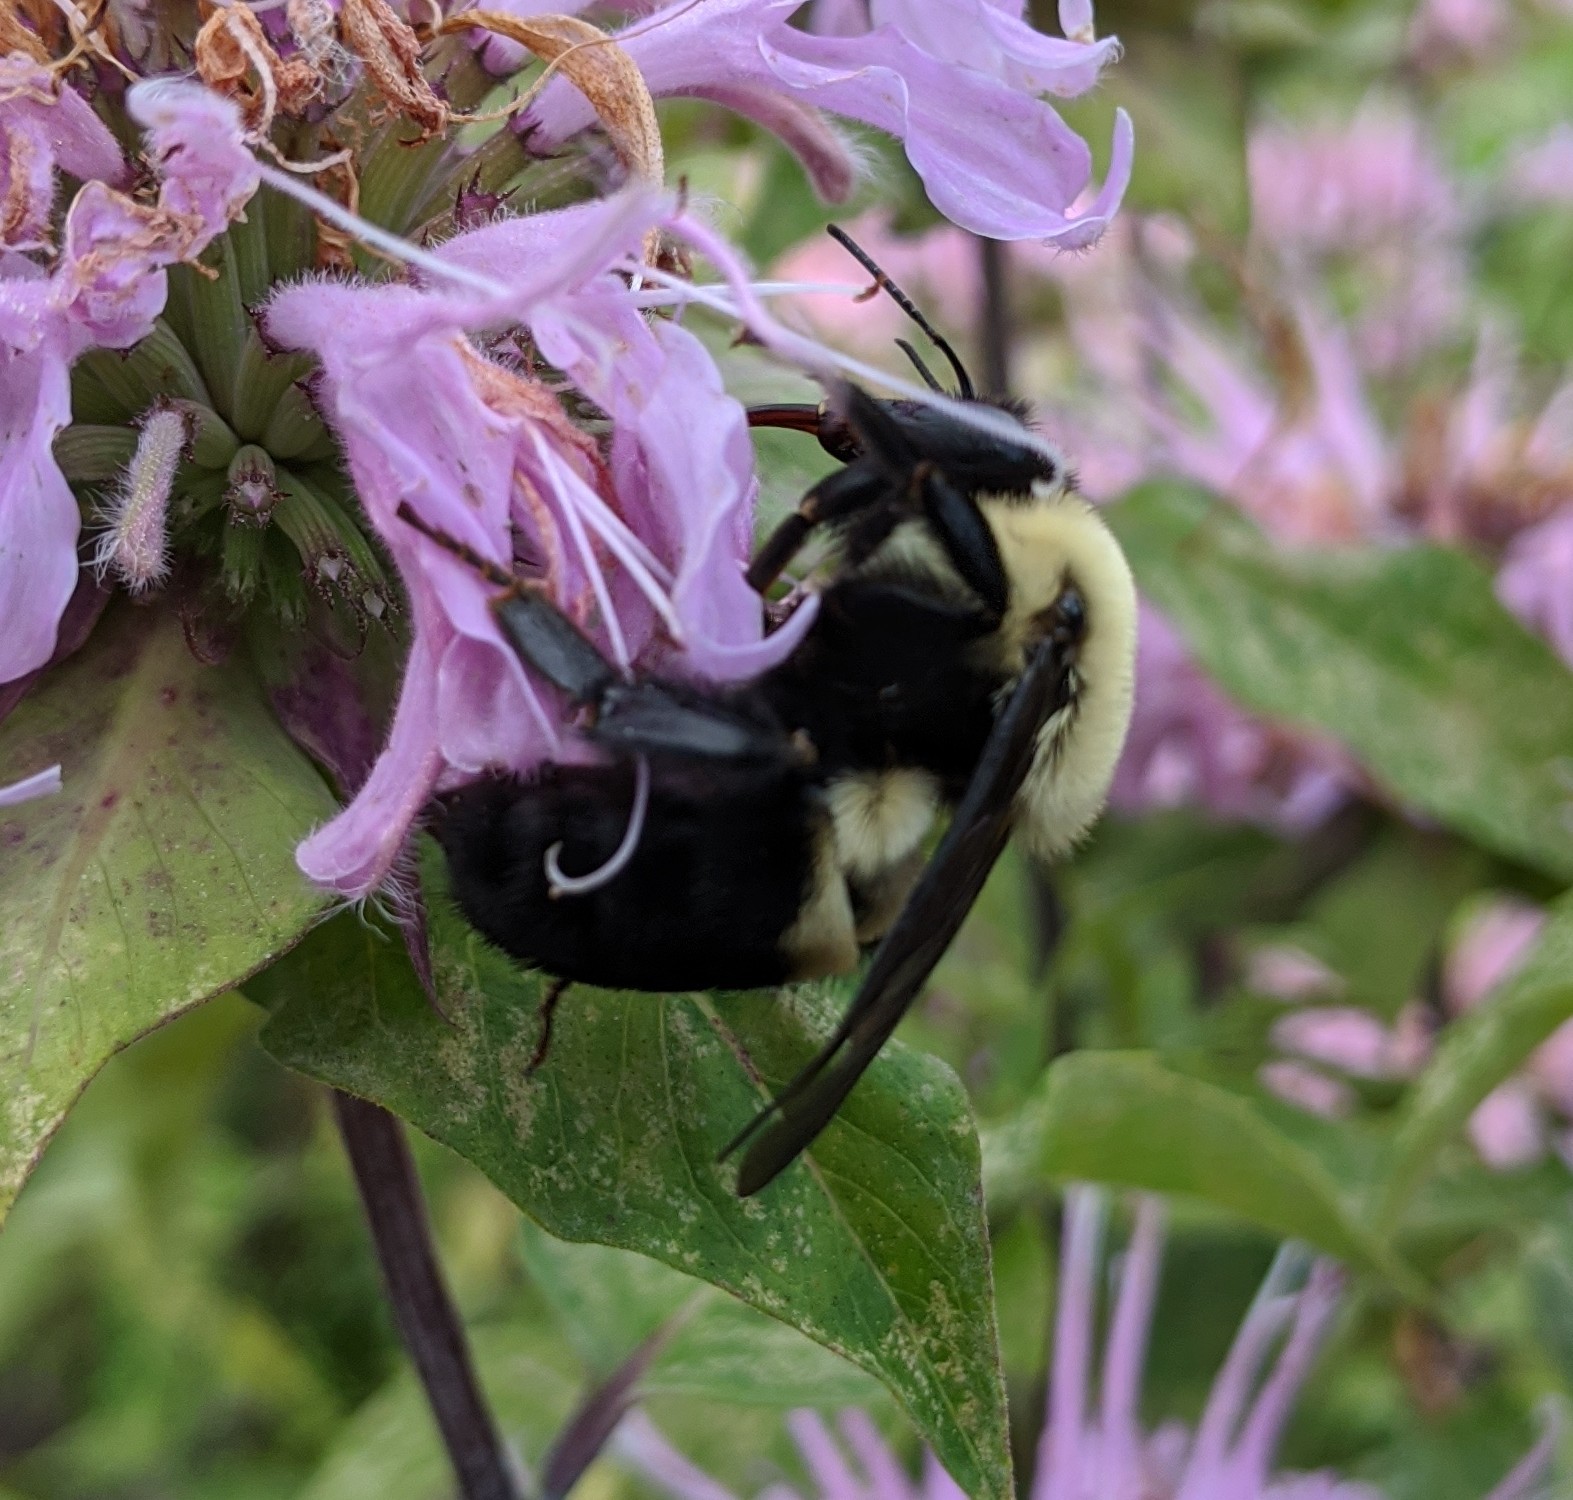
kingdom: Animalia
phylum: Arthropoda
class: Insecta
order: Hymenoptera
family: Apidae
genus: Bombus
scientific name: Bombus griseocollis
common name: Brown-belted bumble bee
